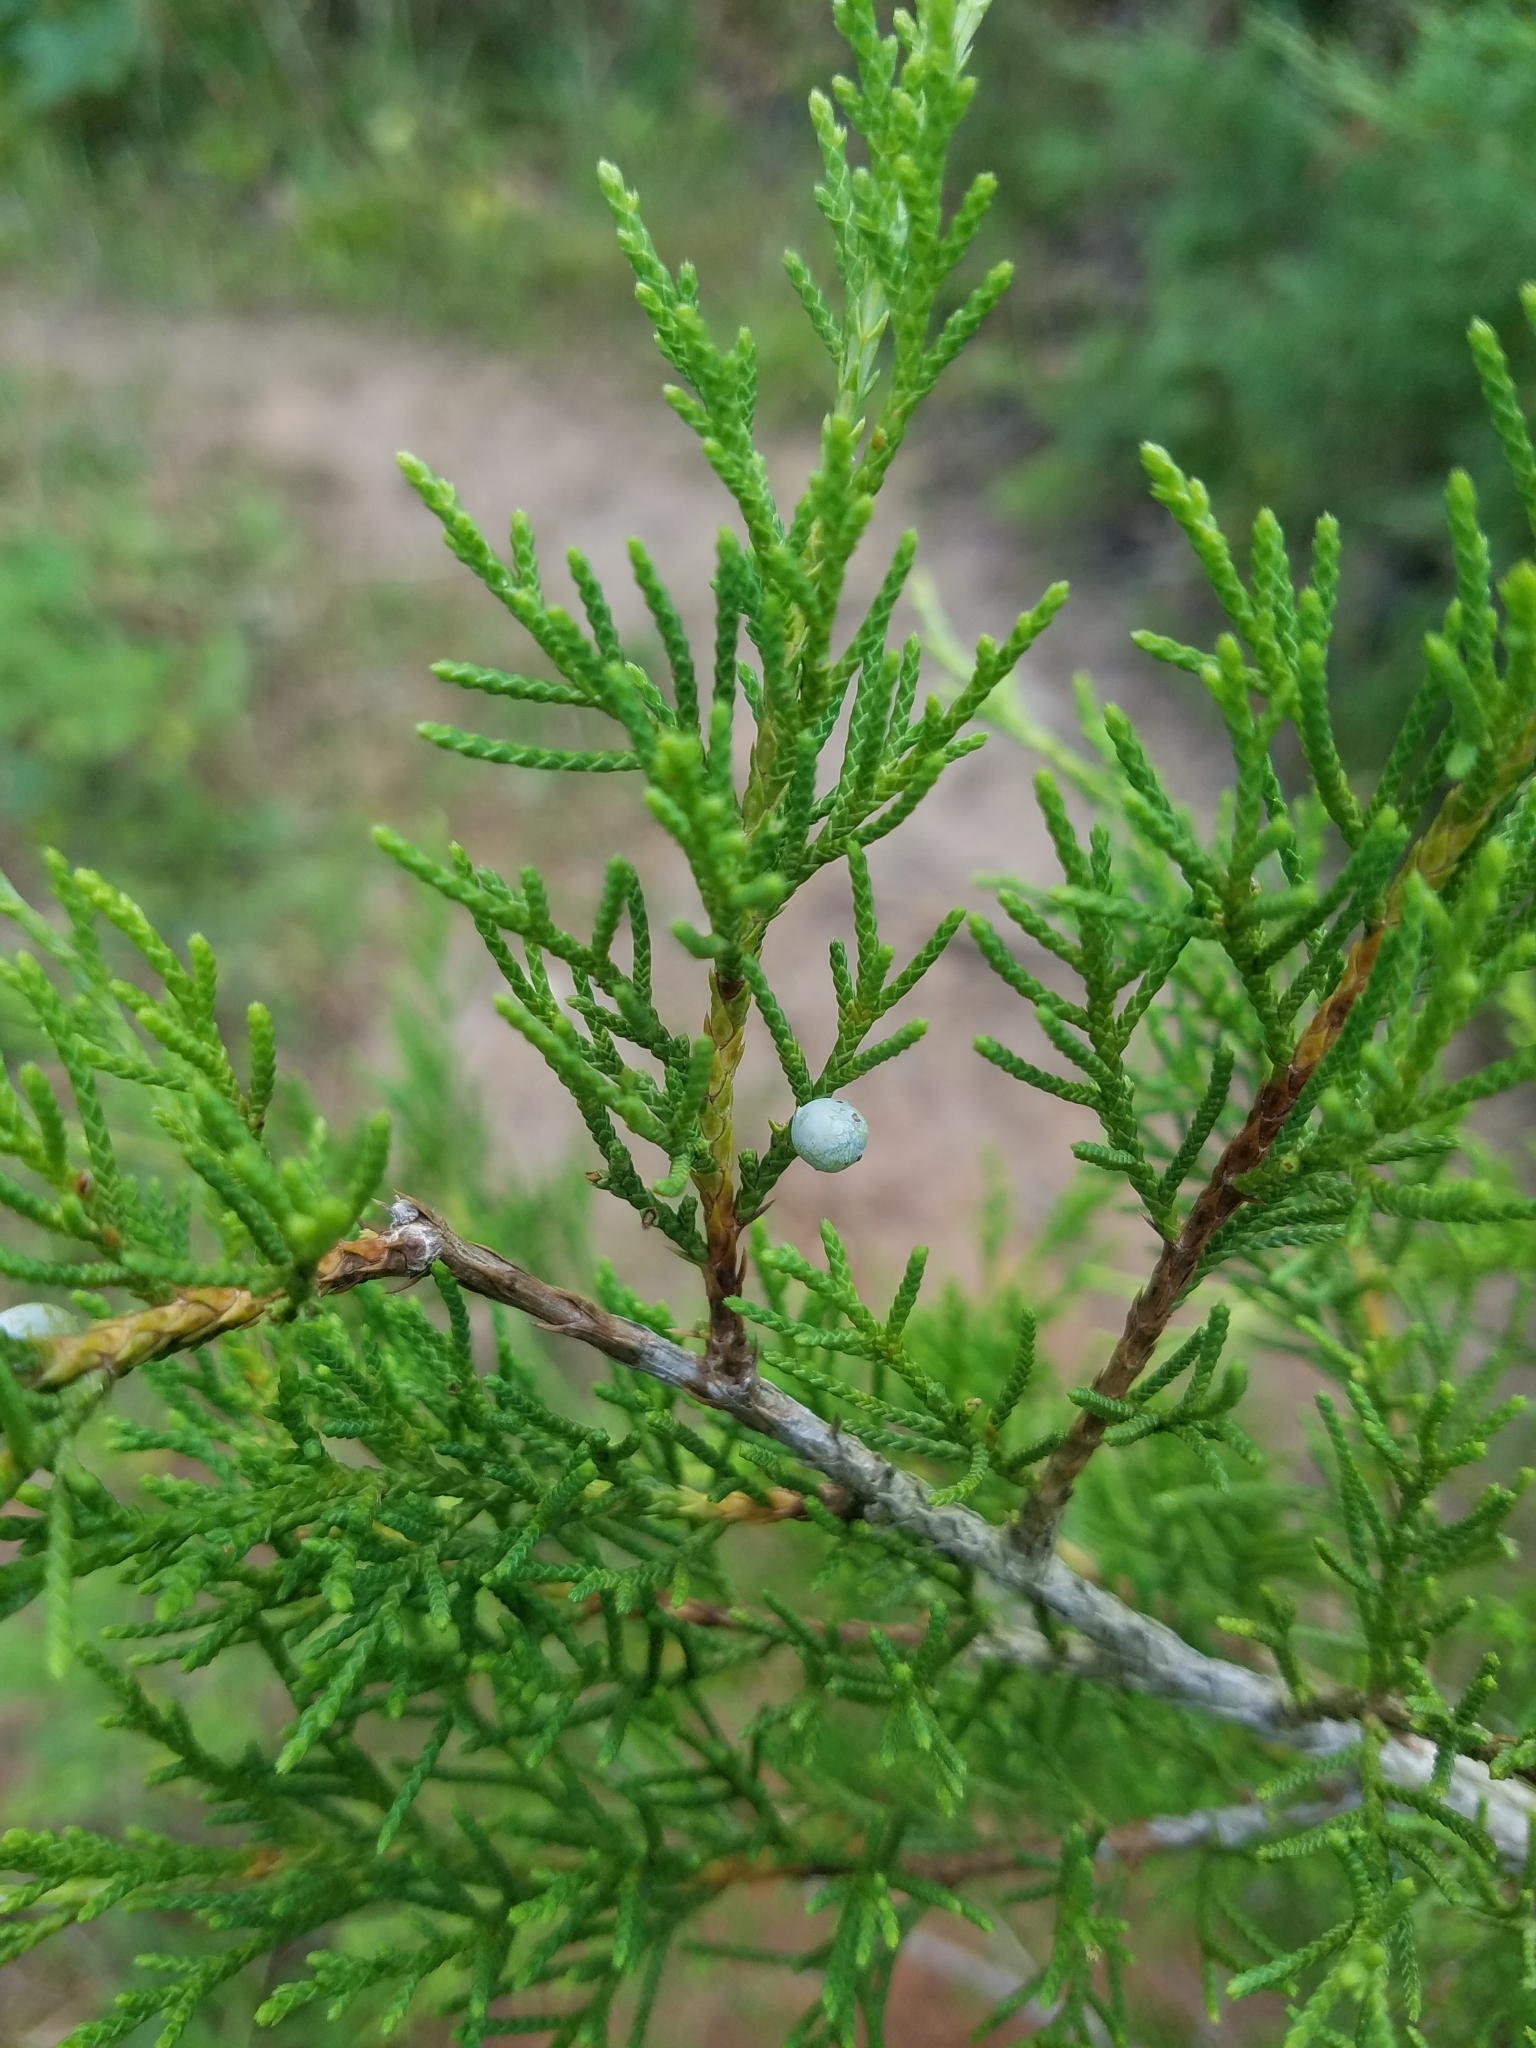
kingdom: Plantae
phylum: Tracheophyta
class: Pinopsida
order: Pinales
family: Cupressaceae
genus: Juniperus
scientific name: Juniperus virginiana
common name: Red juniper
